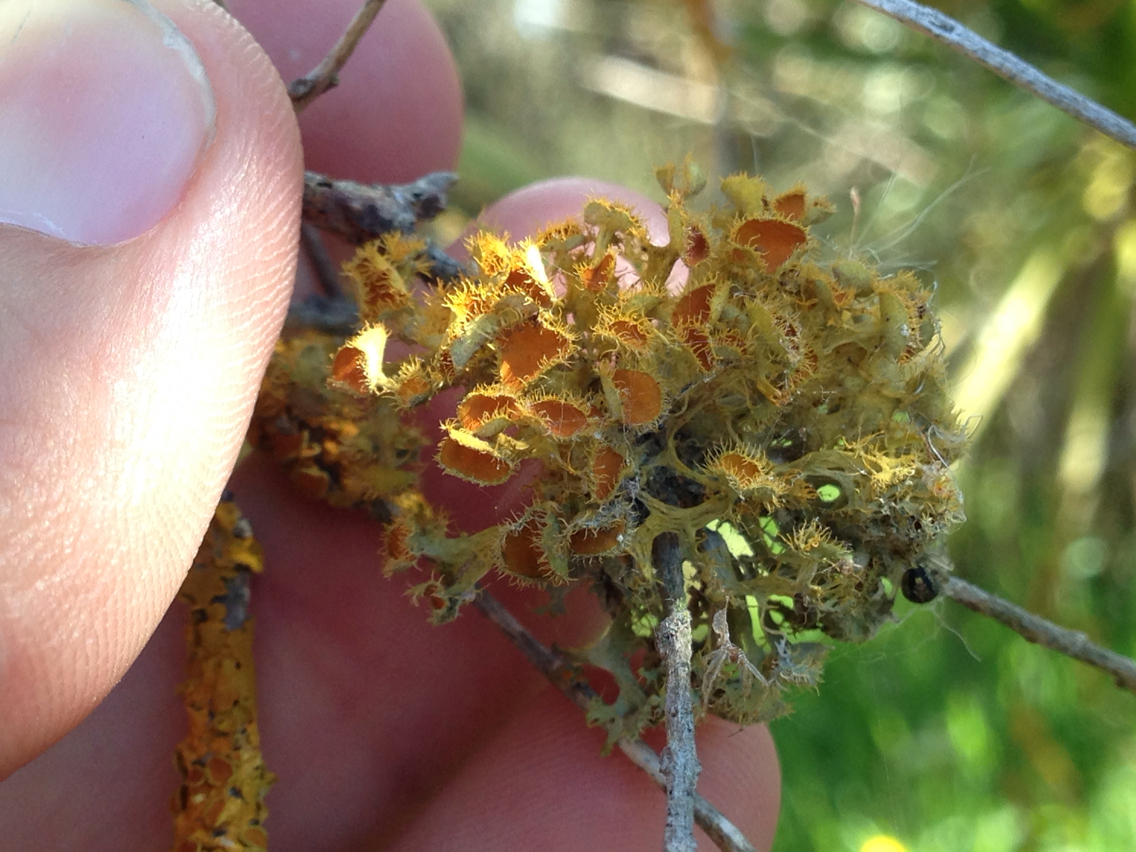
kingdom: Fungi
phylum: Ascomycota
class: Lecanoromycetes
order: Teloschistales
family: Teloschistaceae
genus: Niorma
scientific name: Niorma chrysophthalma
